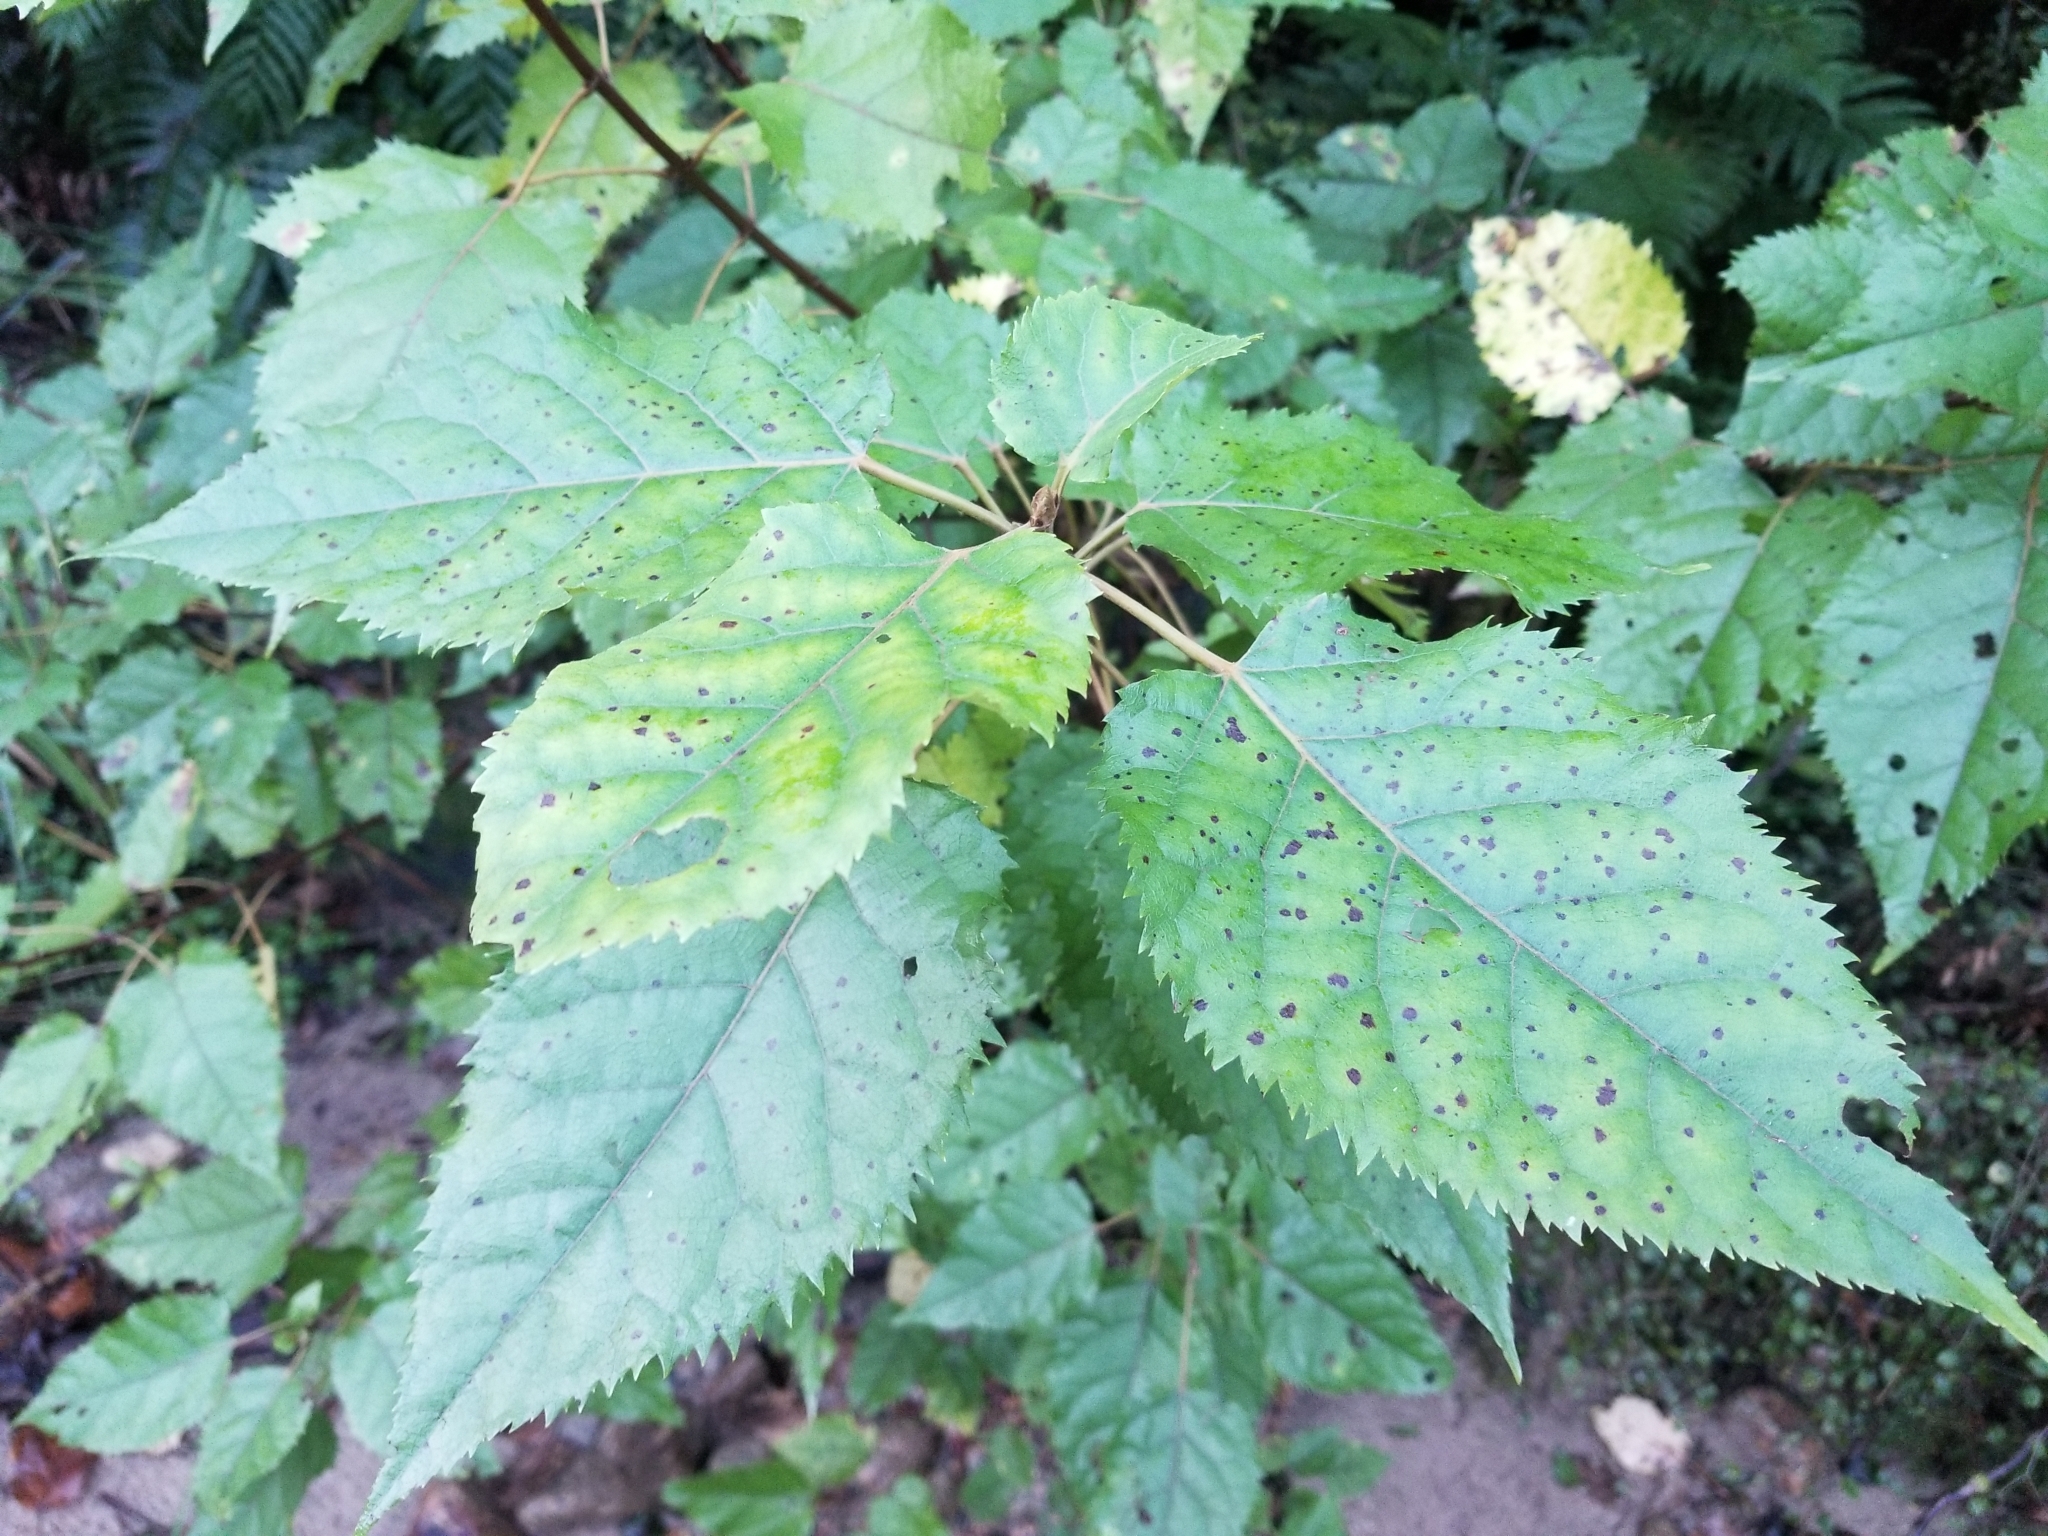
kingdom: Plantae
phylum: Tracheophyta
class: Magnoliopsida
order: Oxalidales
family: Elaeocarpaceae
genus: Aristotelia
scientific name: Aristotelia serrata
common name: New zealand wineberry
